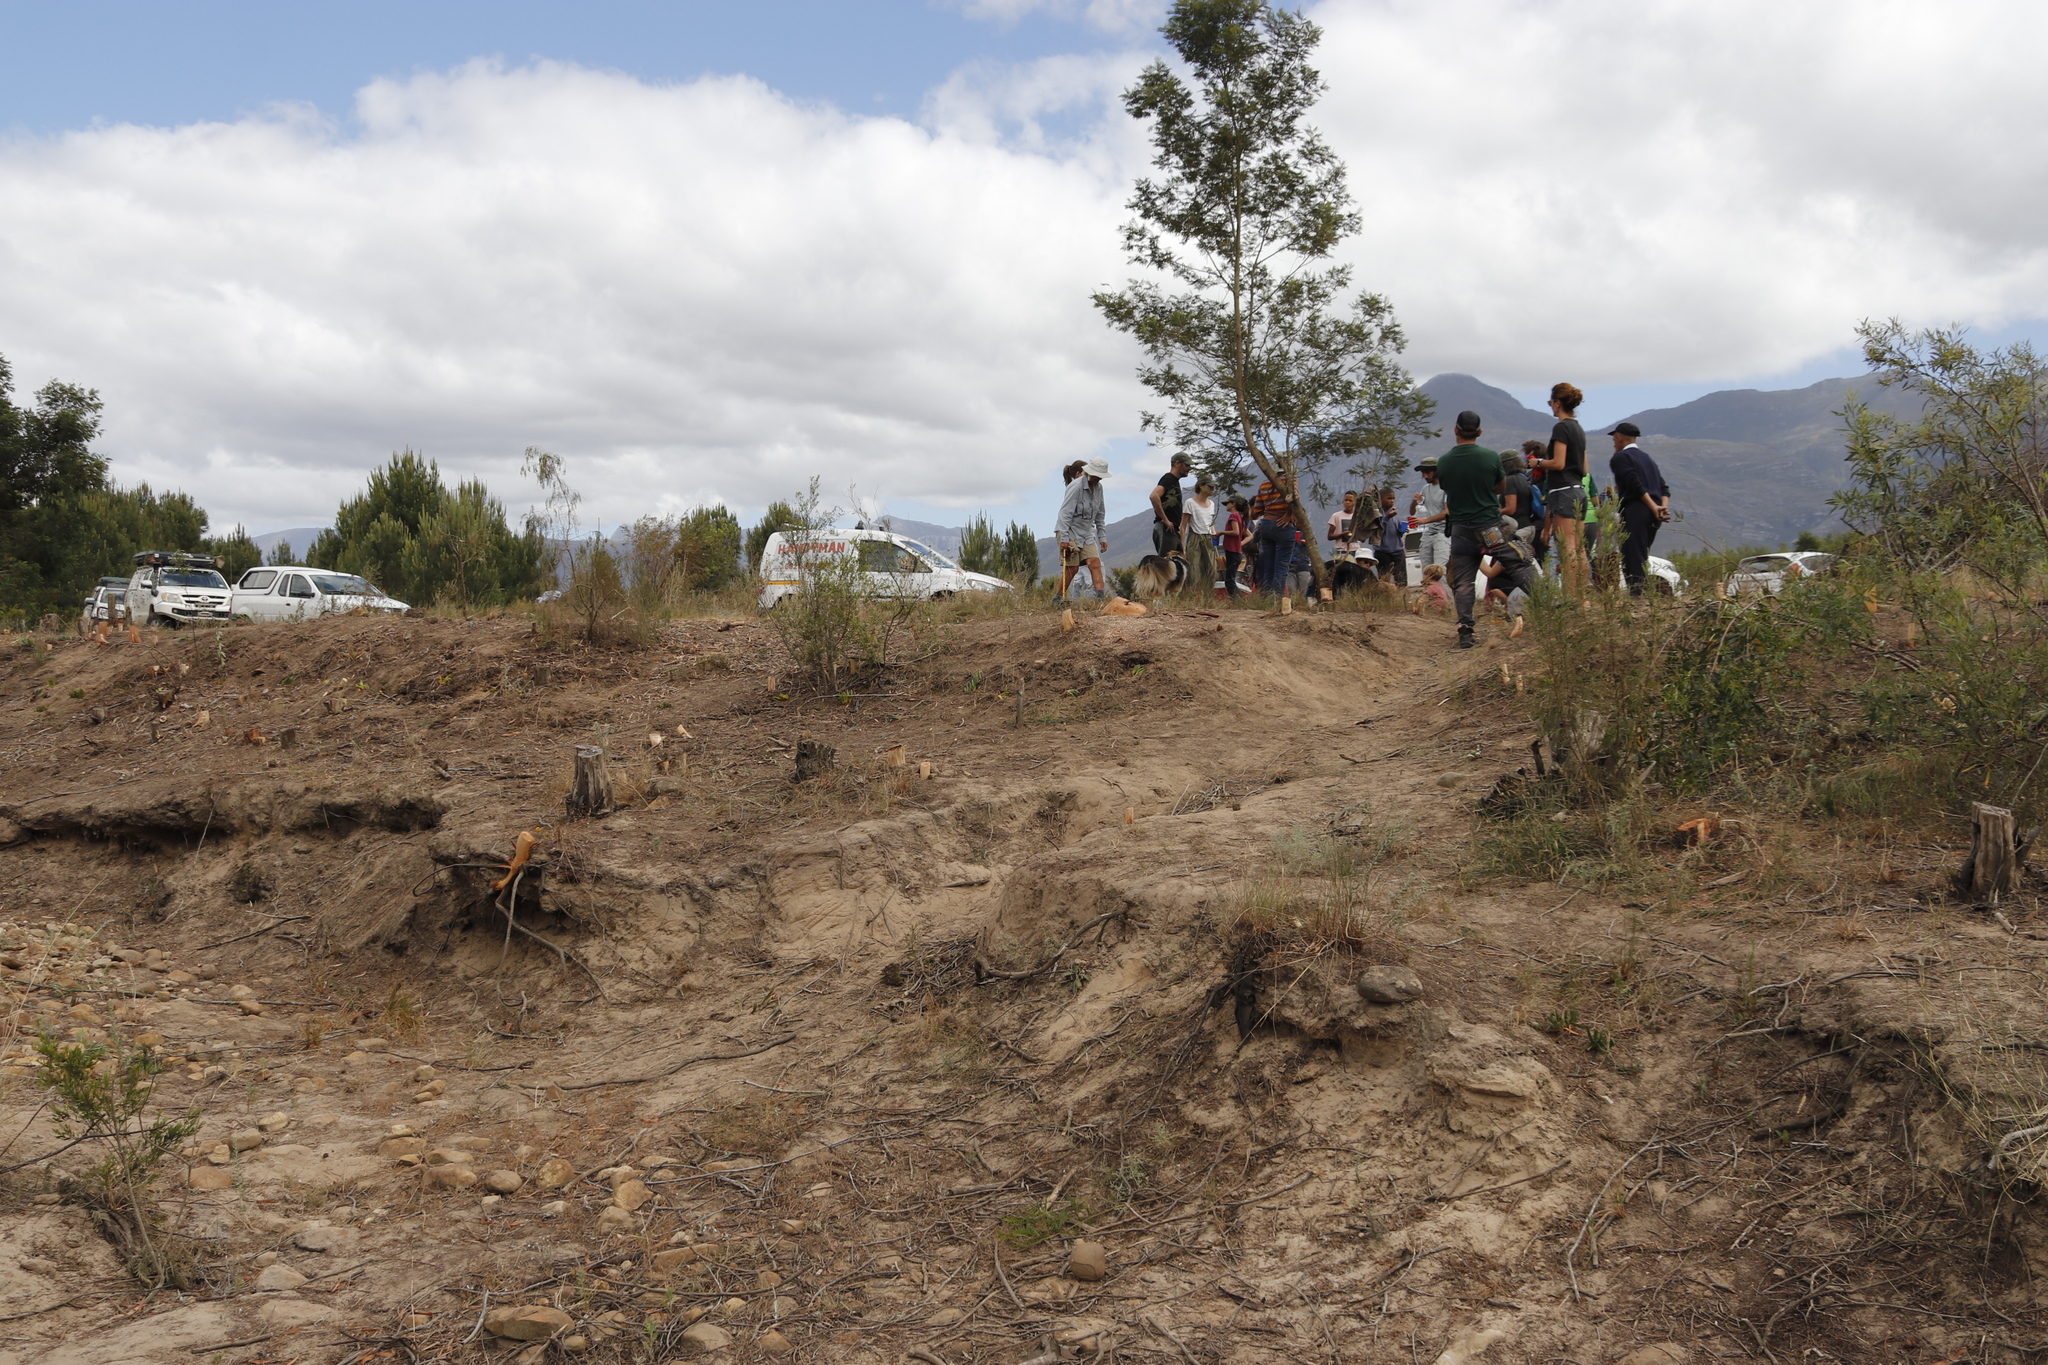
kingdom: Plantae
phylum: Tracheophyta
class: Magnoliopsida
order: Fabales
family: Fabaceae
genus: Acacia
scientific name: Acacia mearnsii
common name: Black wattle
